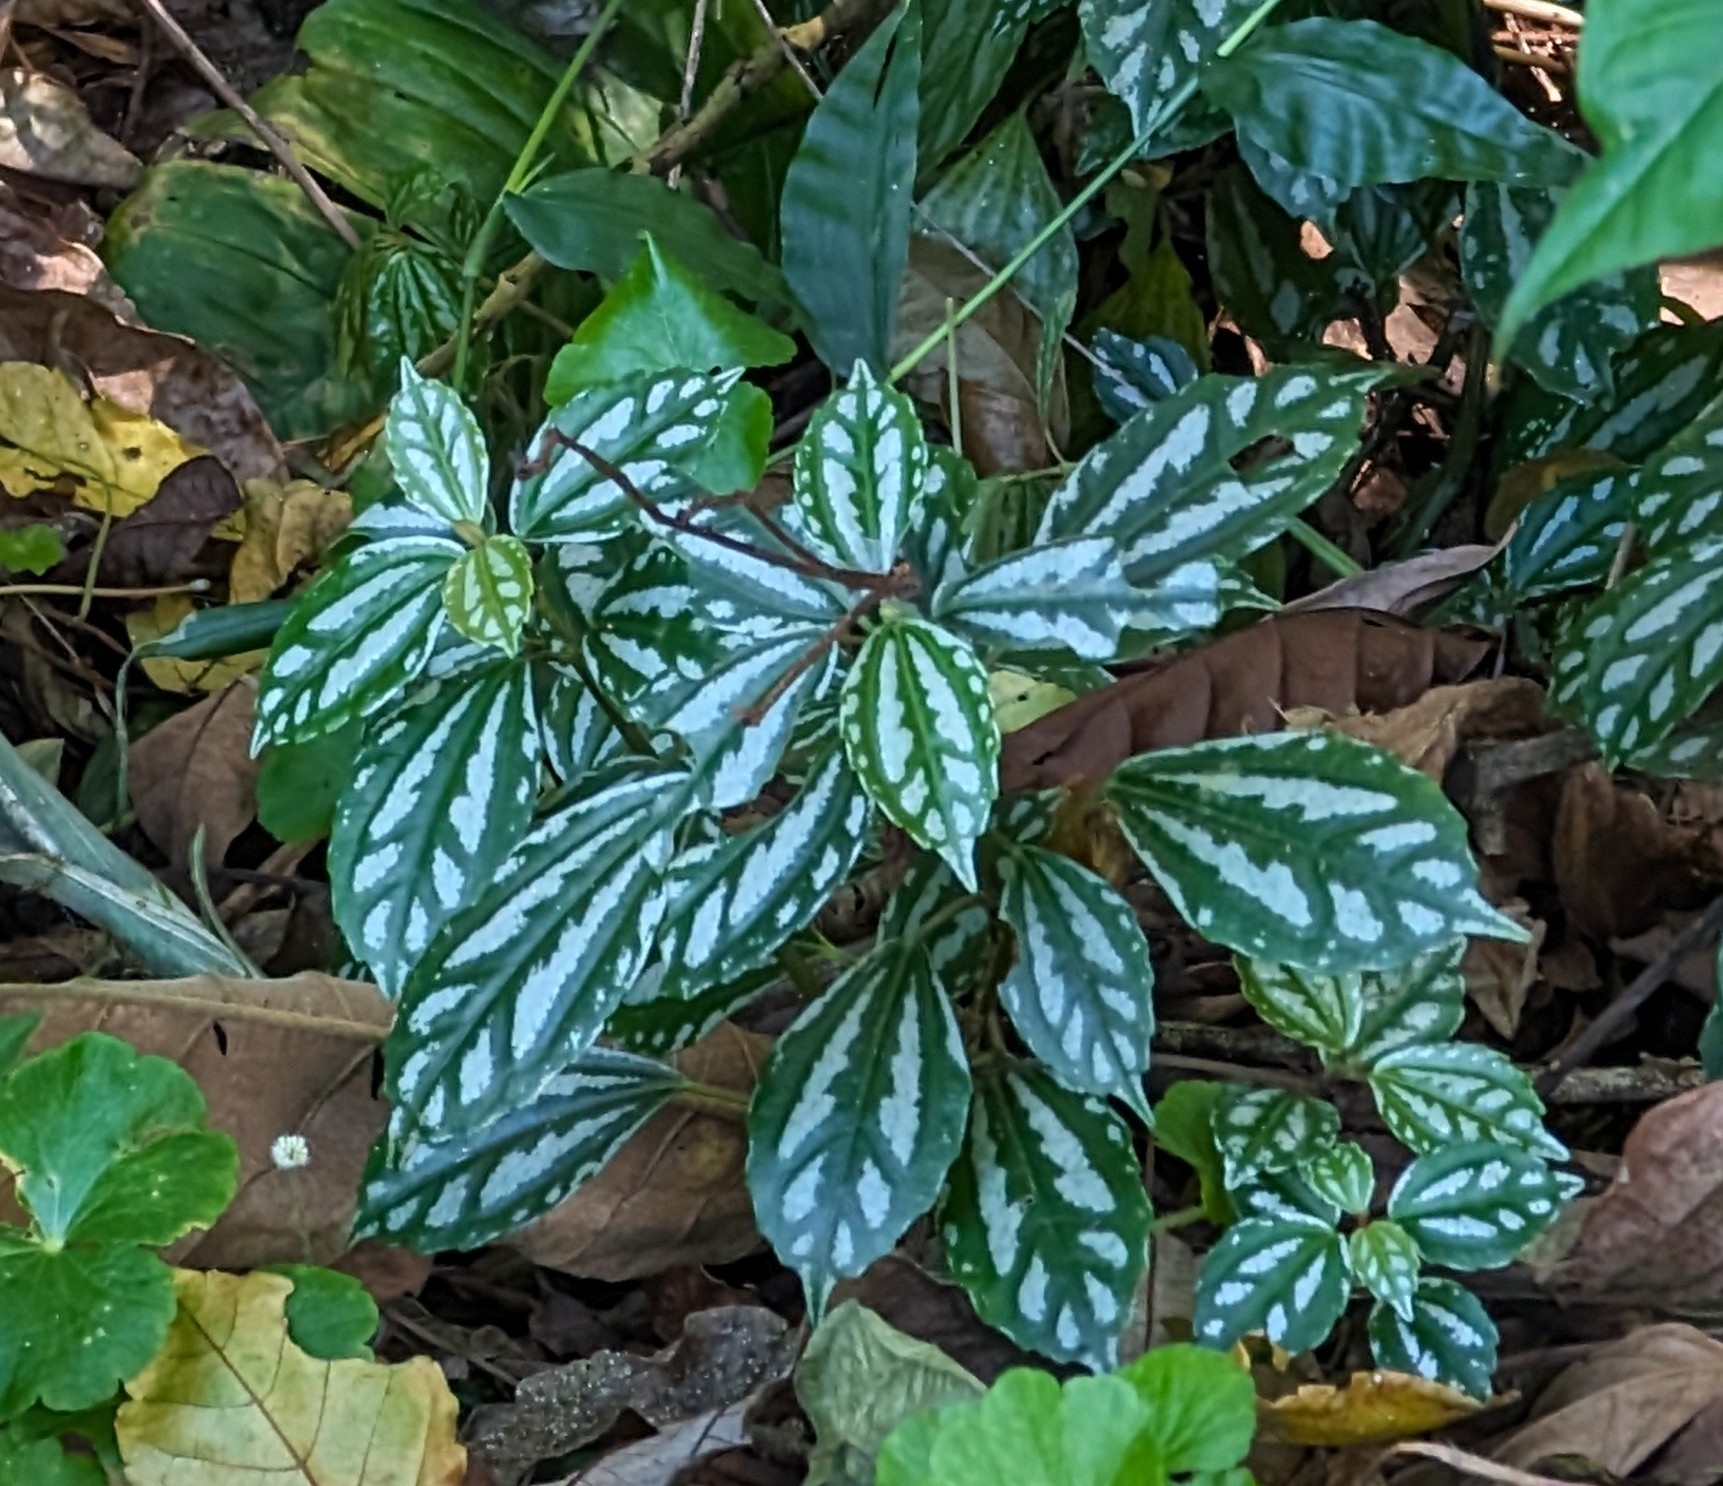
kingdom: Plantae
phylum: Tracheophyta
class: Magnoliopsida
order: Rosales
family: Urticaceae
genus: Pilea
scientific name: Pilea cadierei
